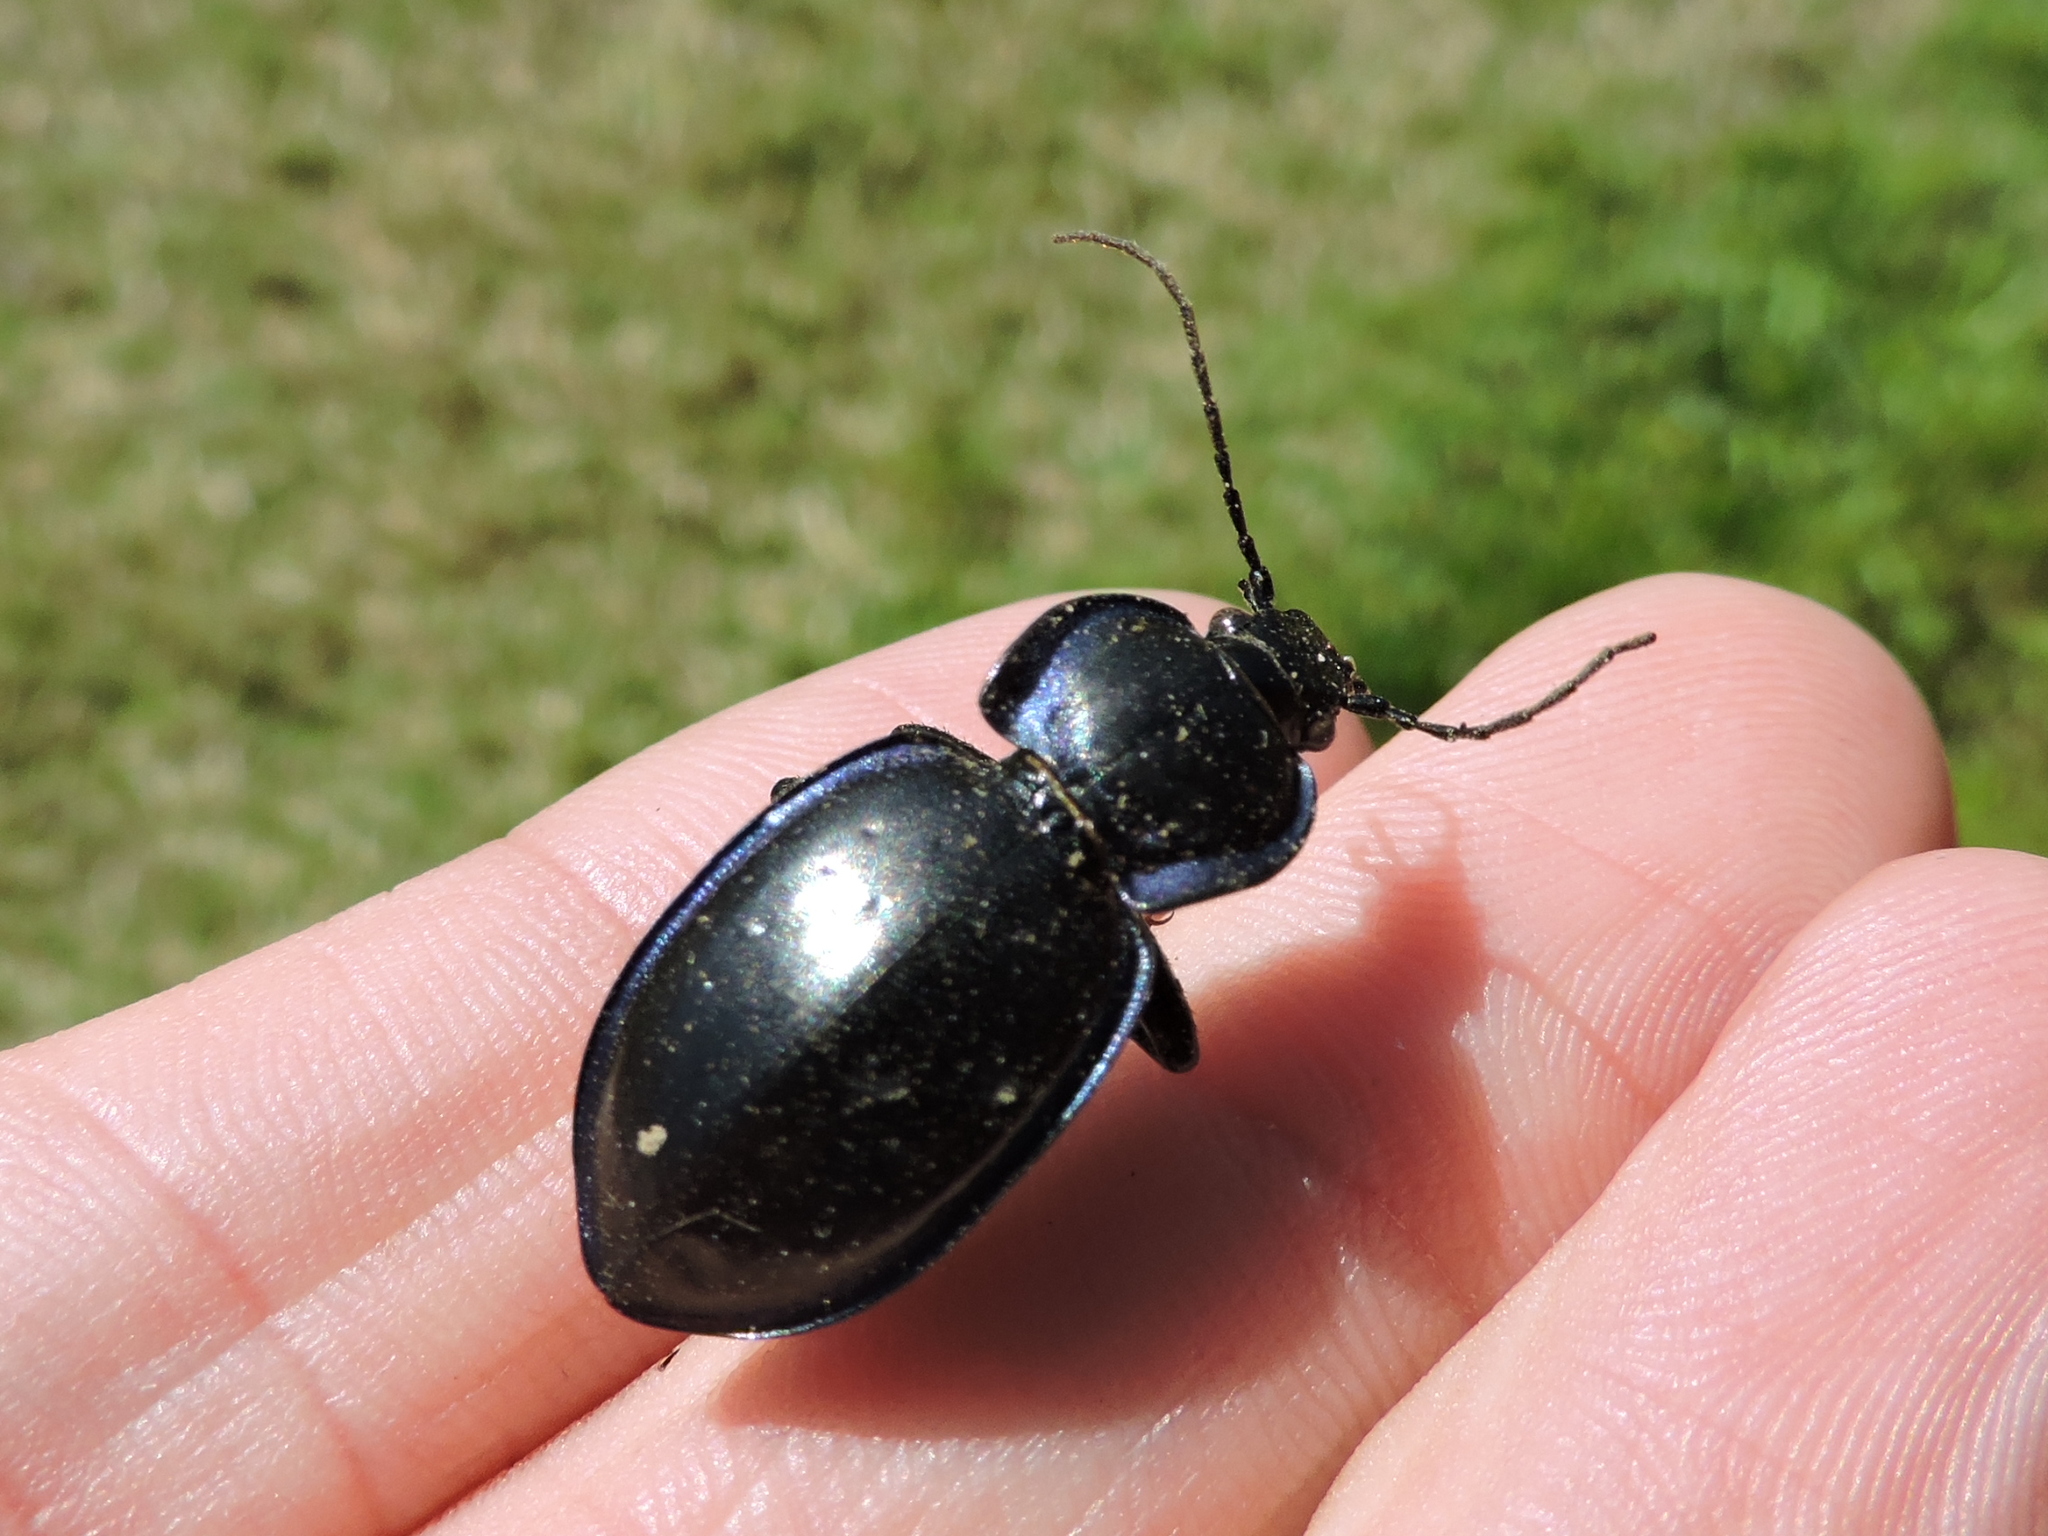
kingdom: Animalia
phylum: Arthropoda
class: Insecta
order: Coleoptera
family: Carabidae
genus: Carabus
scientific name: Carabus finitimus
